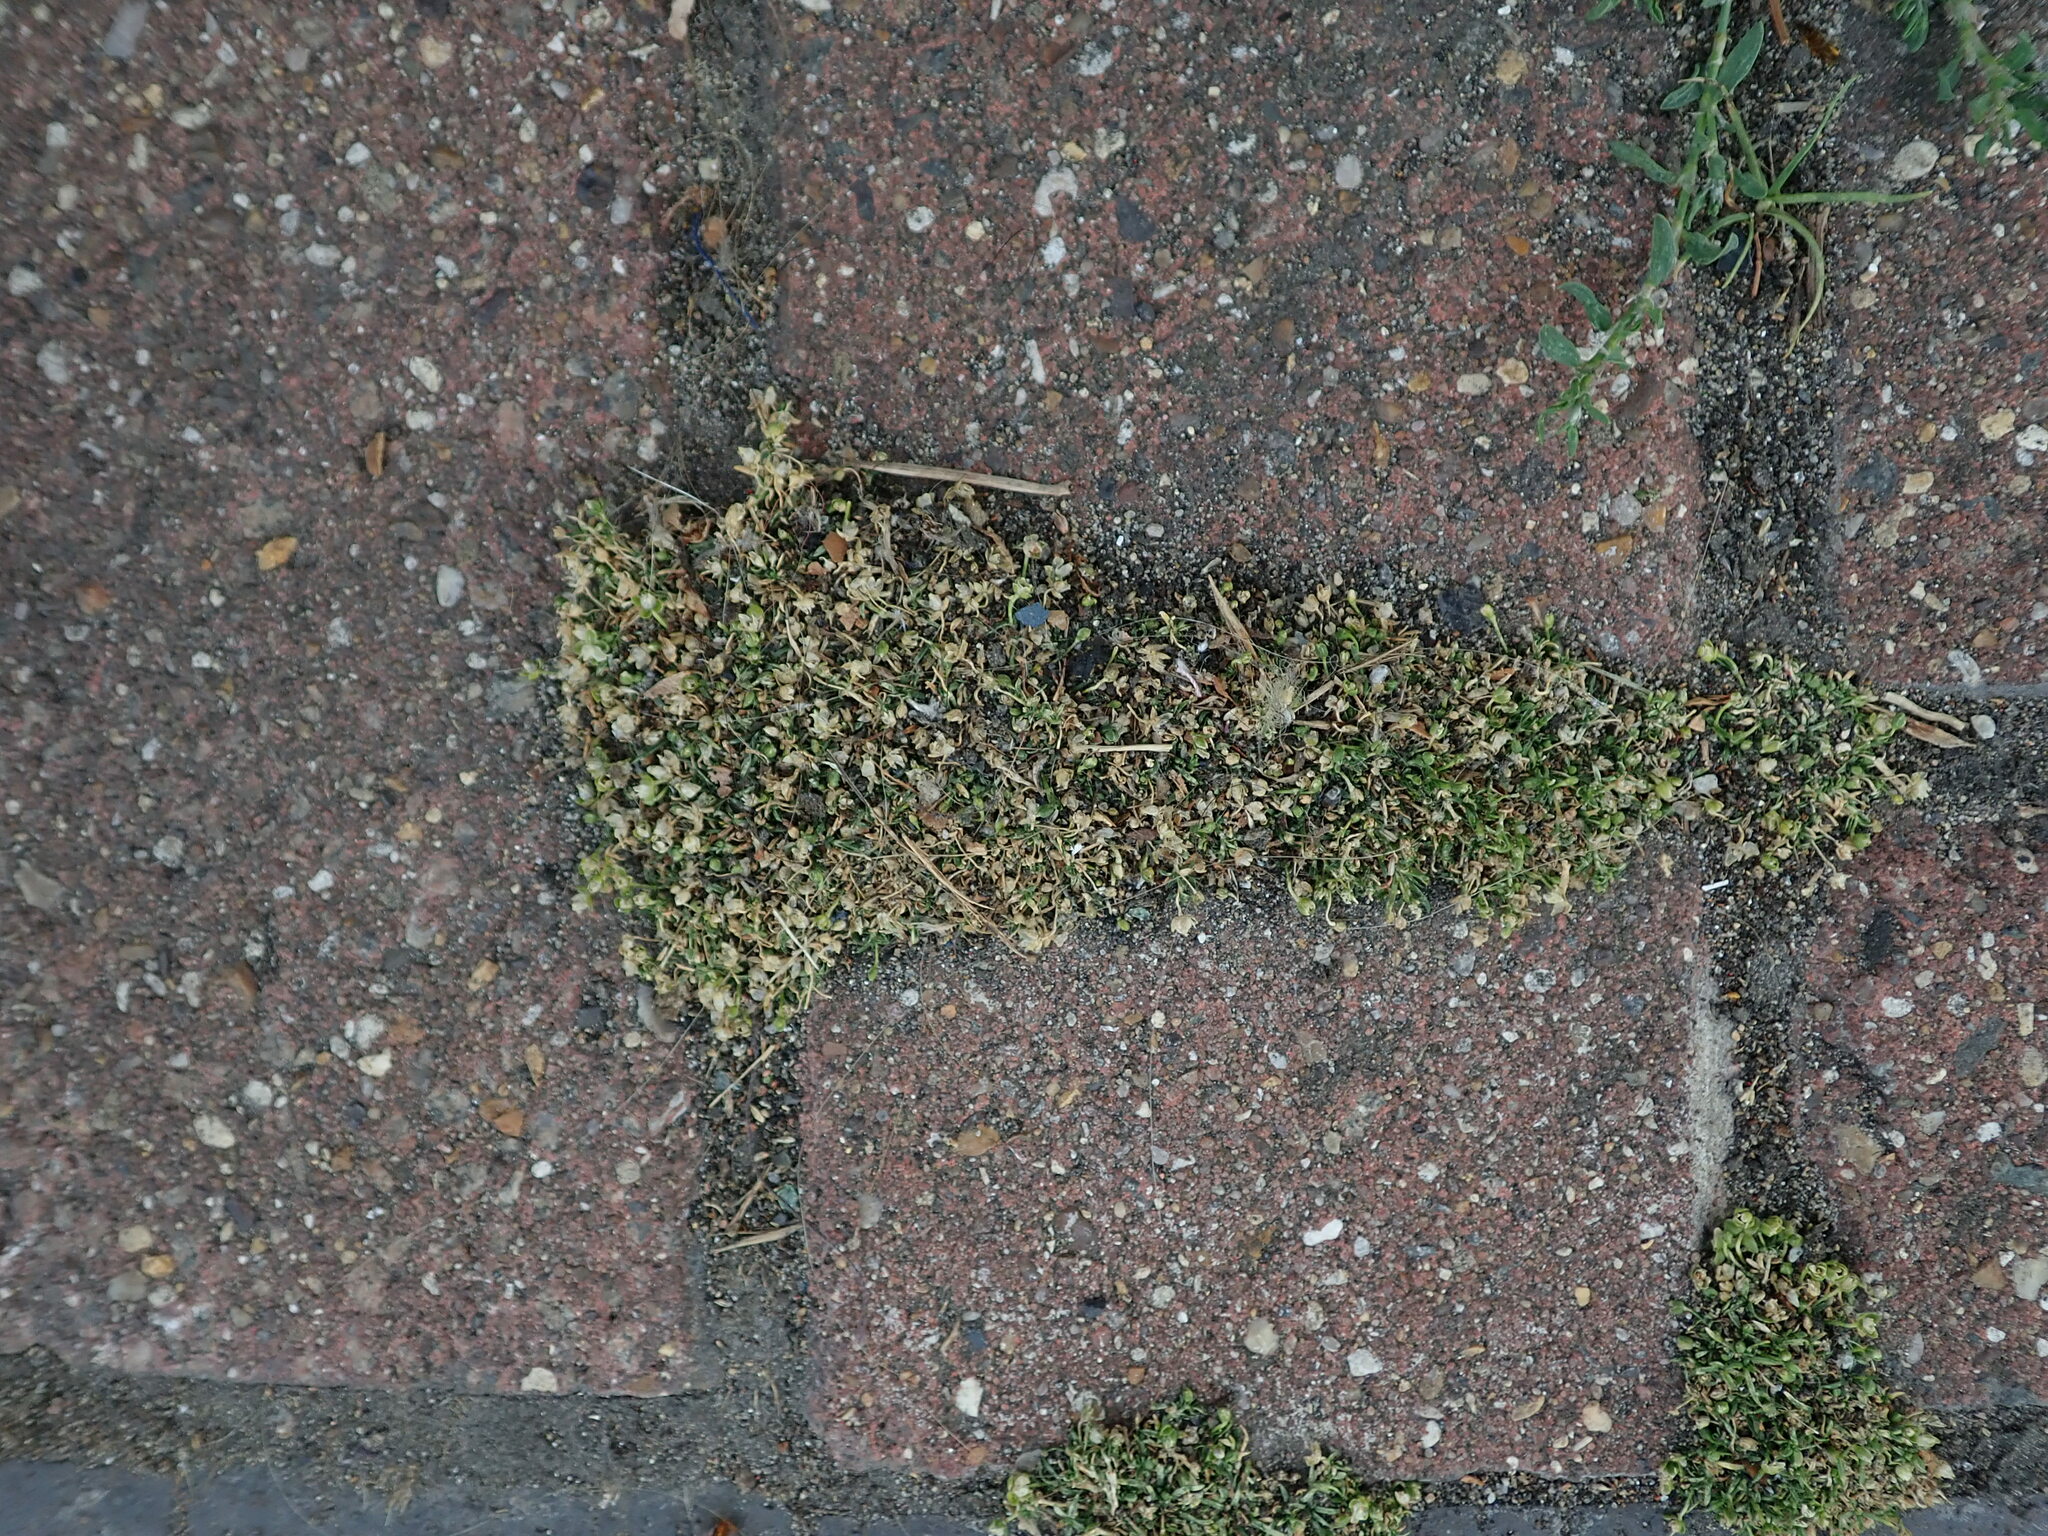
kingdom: Plantae
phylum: Tracheophyta
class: Magnoliopsida
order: Caryophyllales
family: Caryophyllaceae
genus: Sagina
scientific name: Sagina procumbens
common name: Procumbent pearlwort
